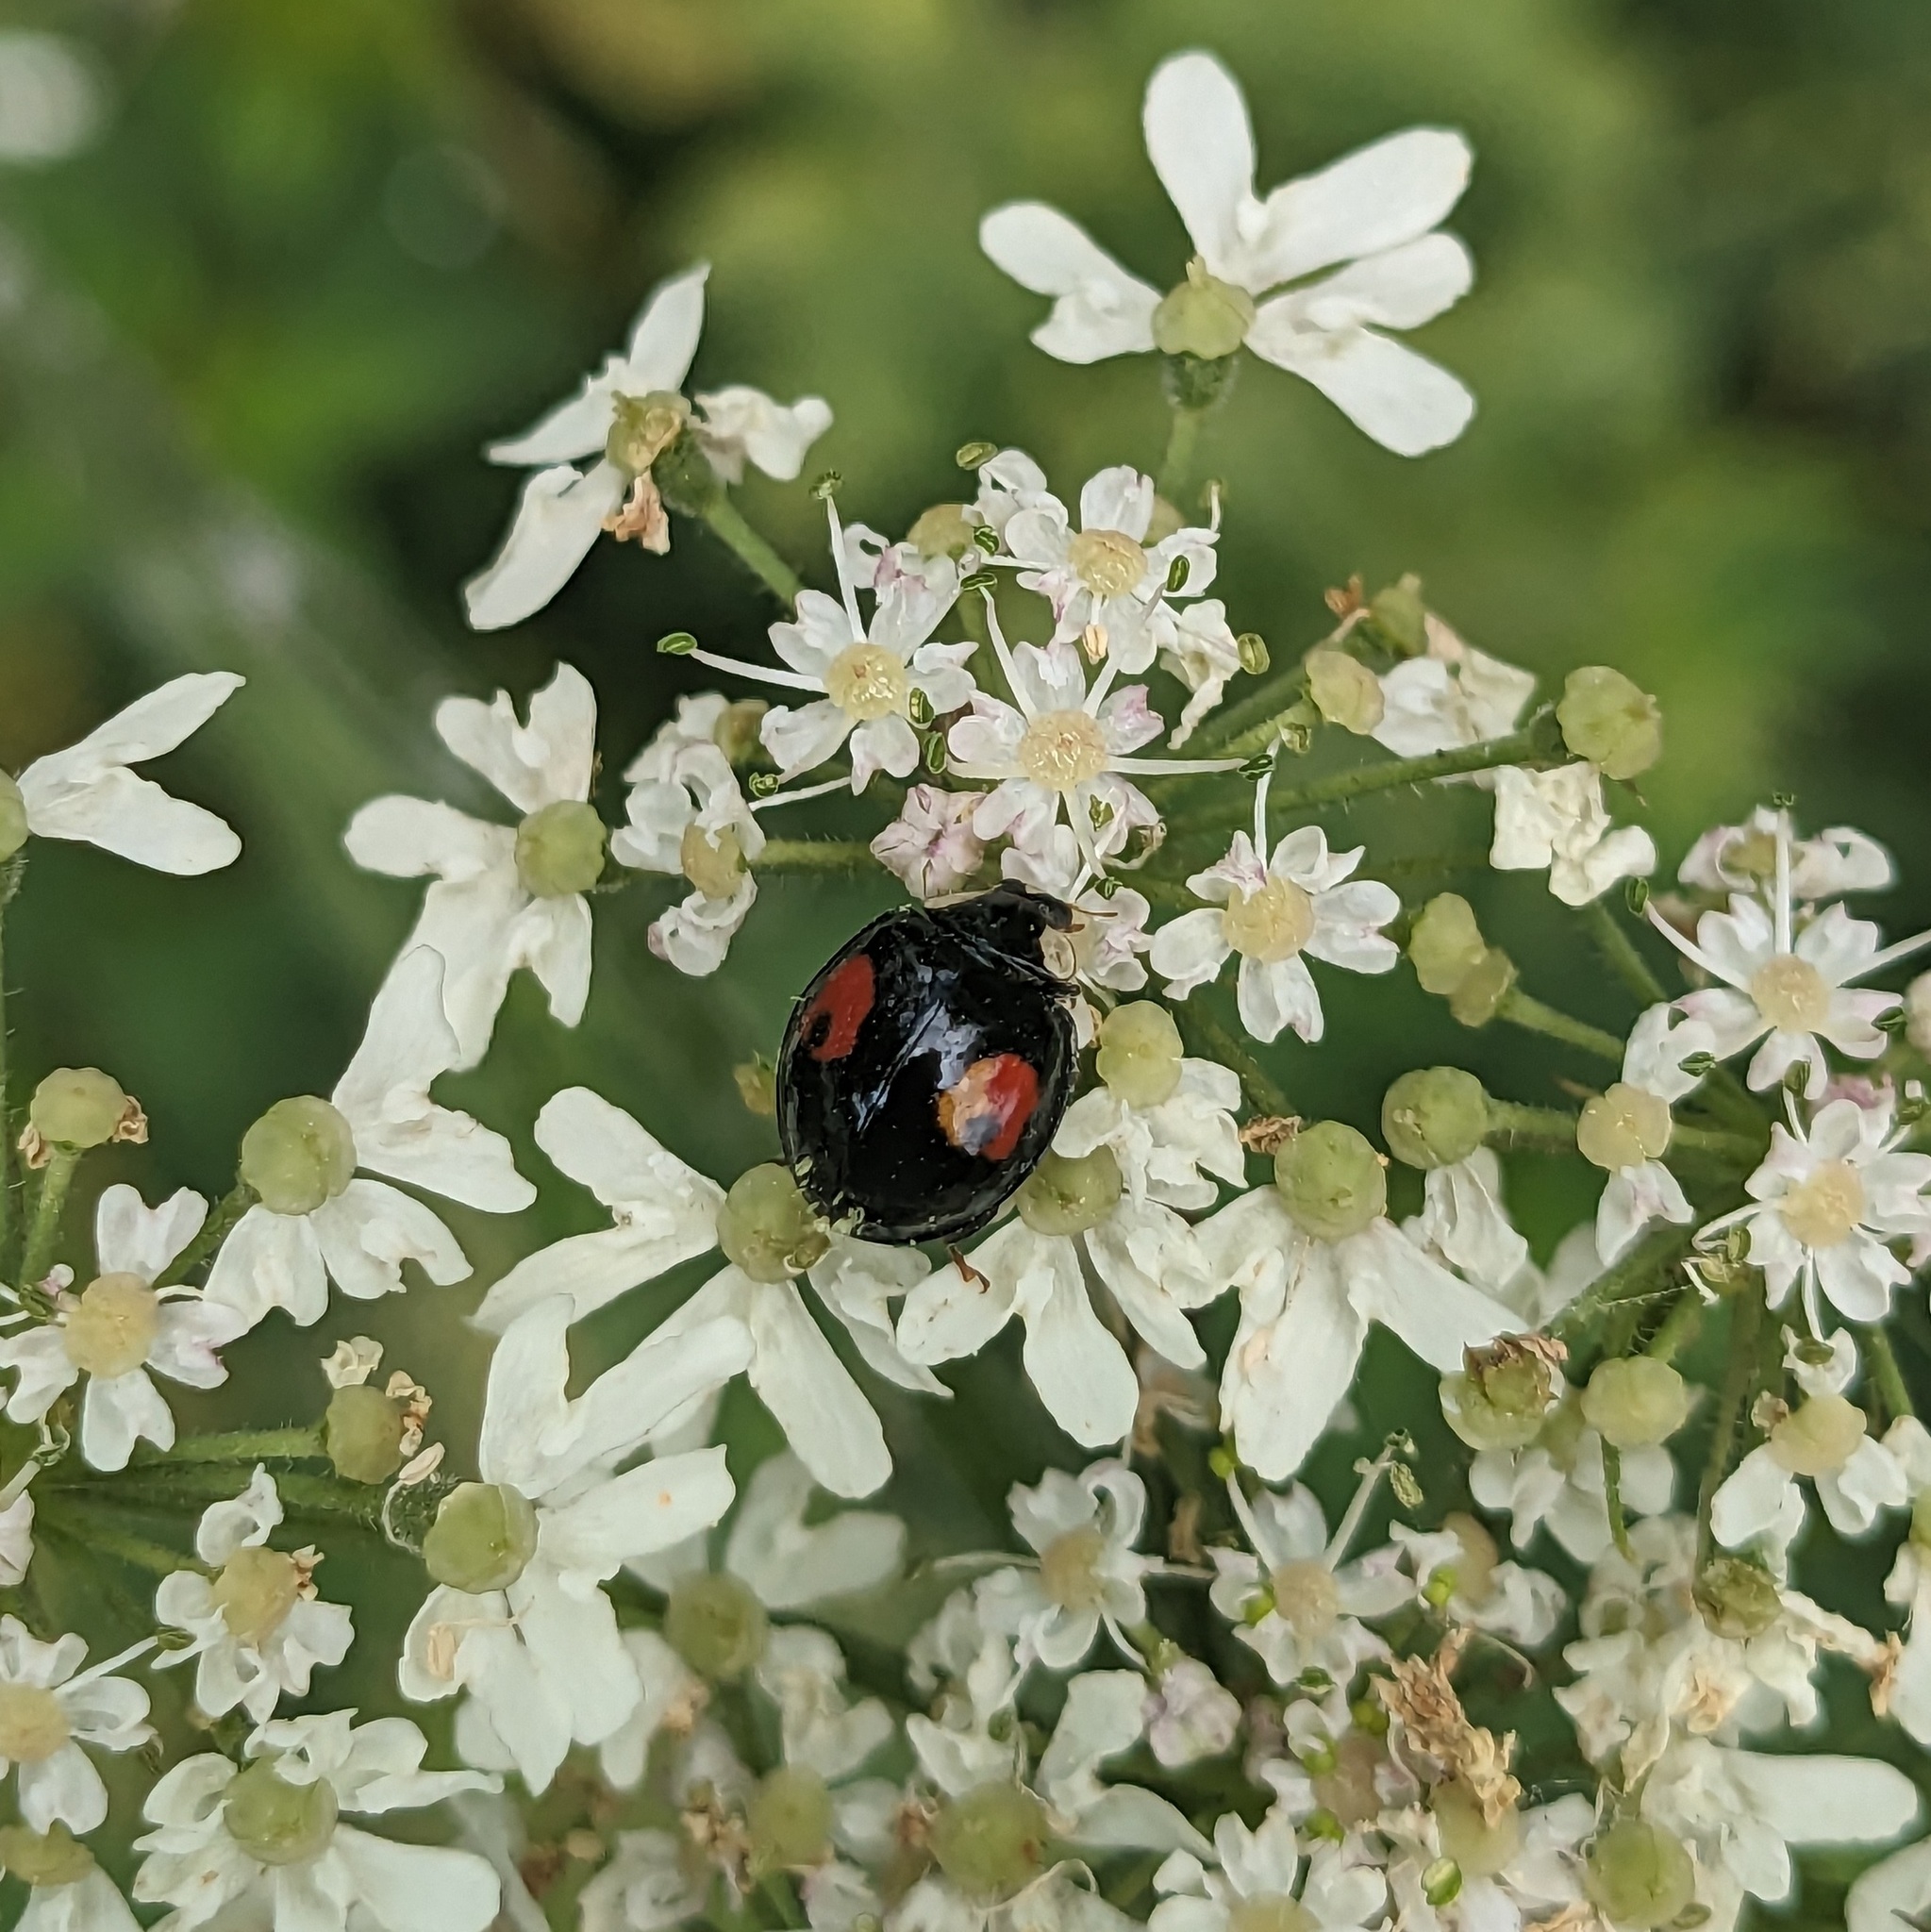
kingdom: Animalia
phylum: Arthropoda
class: Insecta
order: Coleoptera
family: Coccinellidae
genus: Harmonia
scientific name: Harmonia axyridis
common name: Harlequin ladybird
